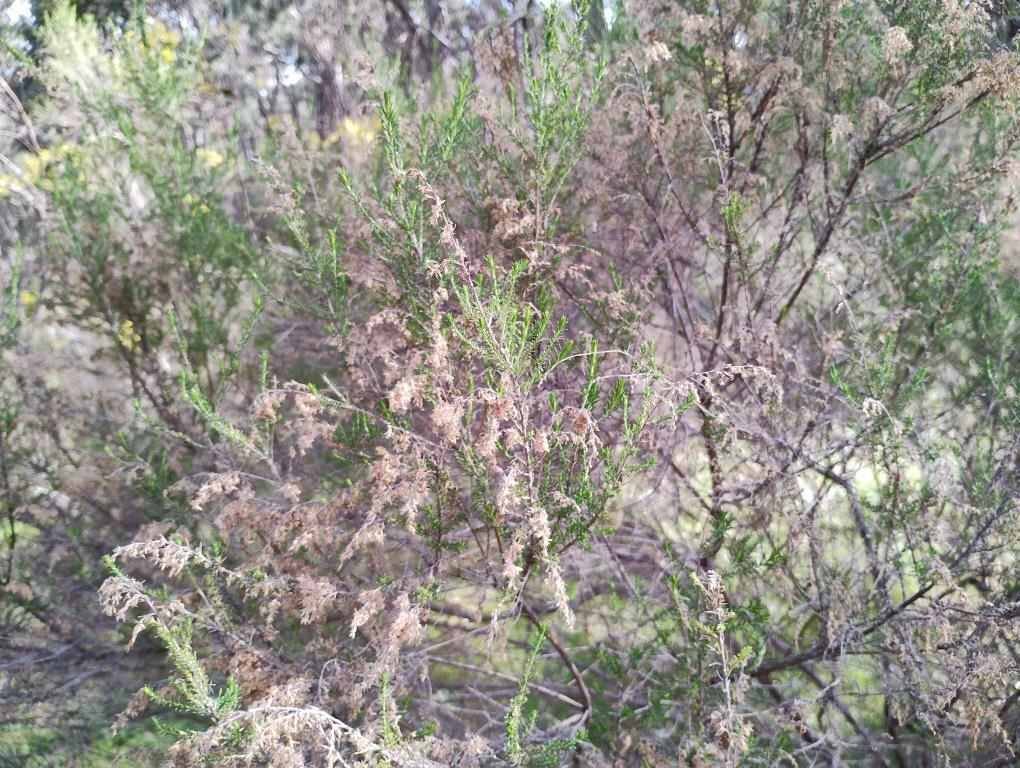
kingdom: Plantae
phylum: Tracheophyta
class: Magnoliopsida
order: Asterales
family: Asteraceae
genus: Cassinia
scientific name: Cassinia sifton
